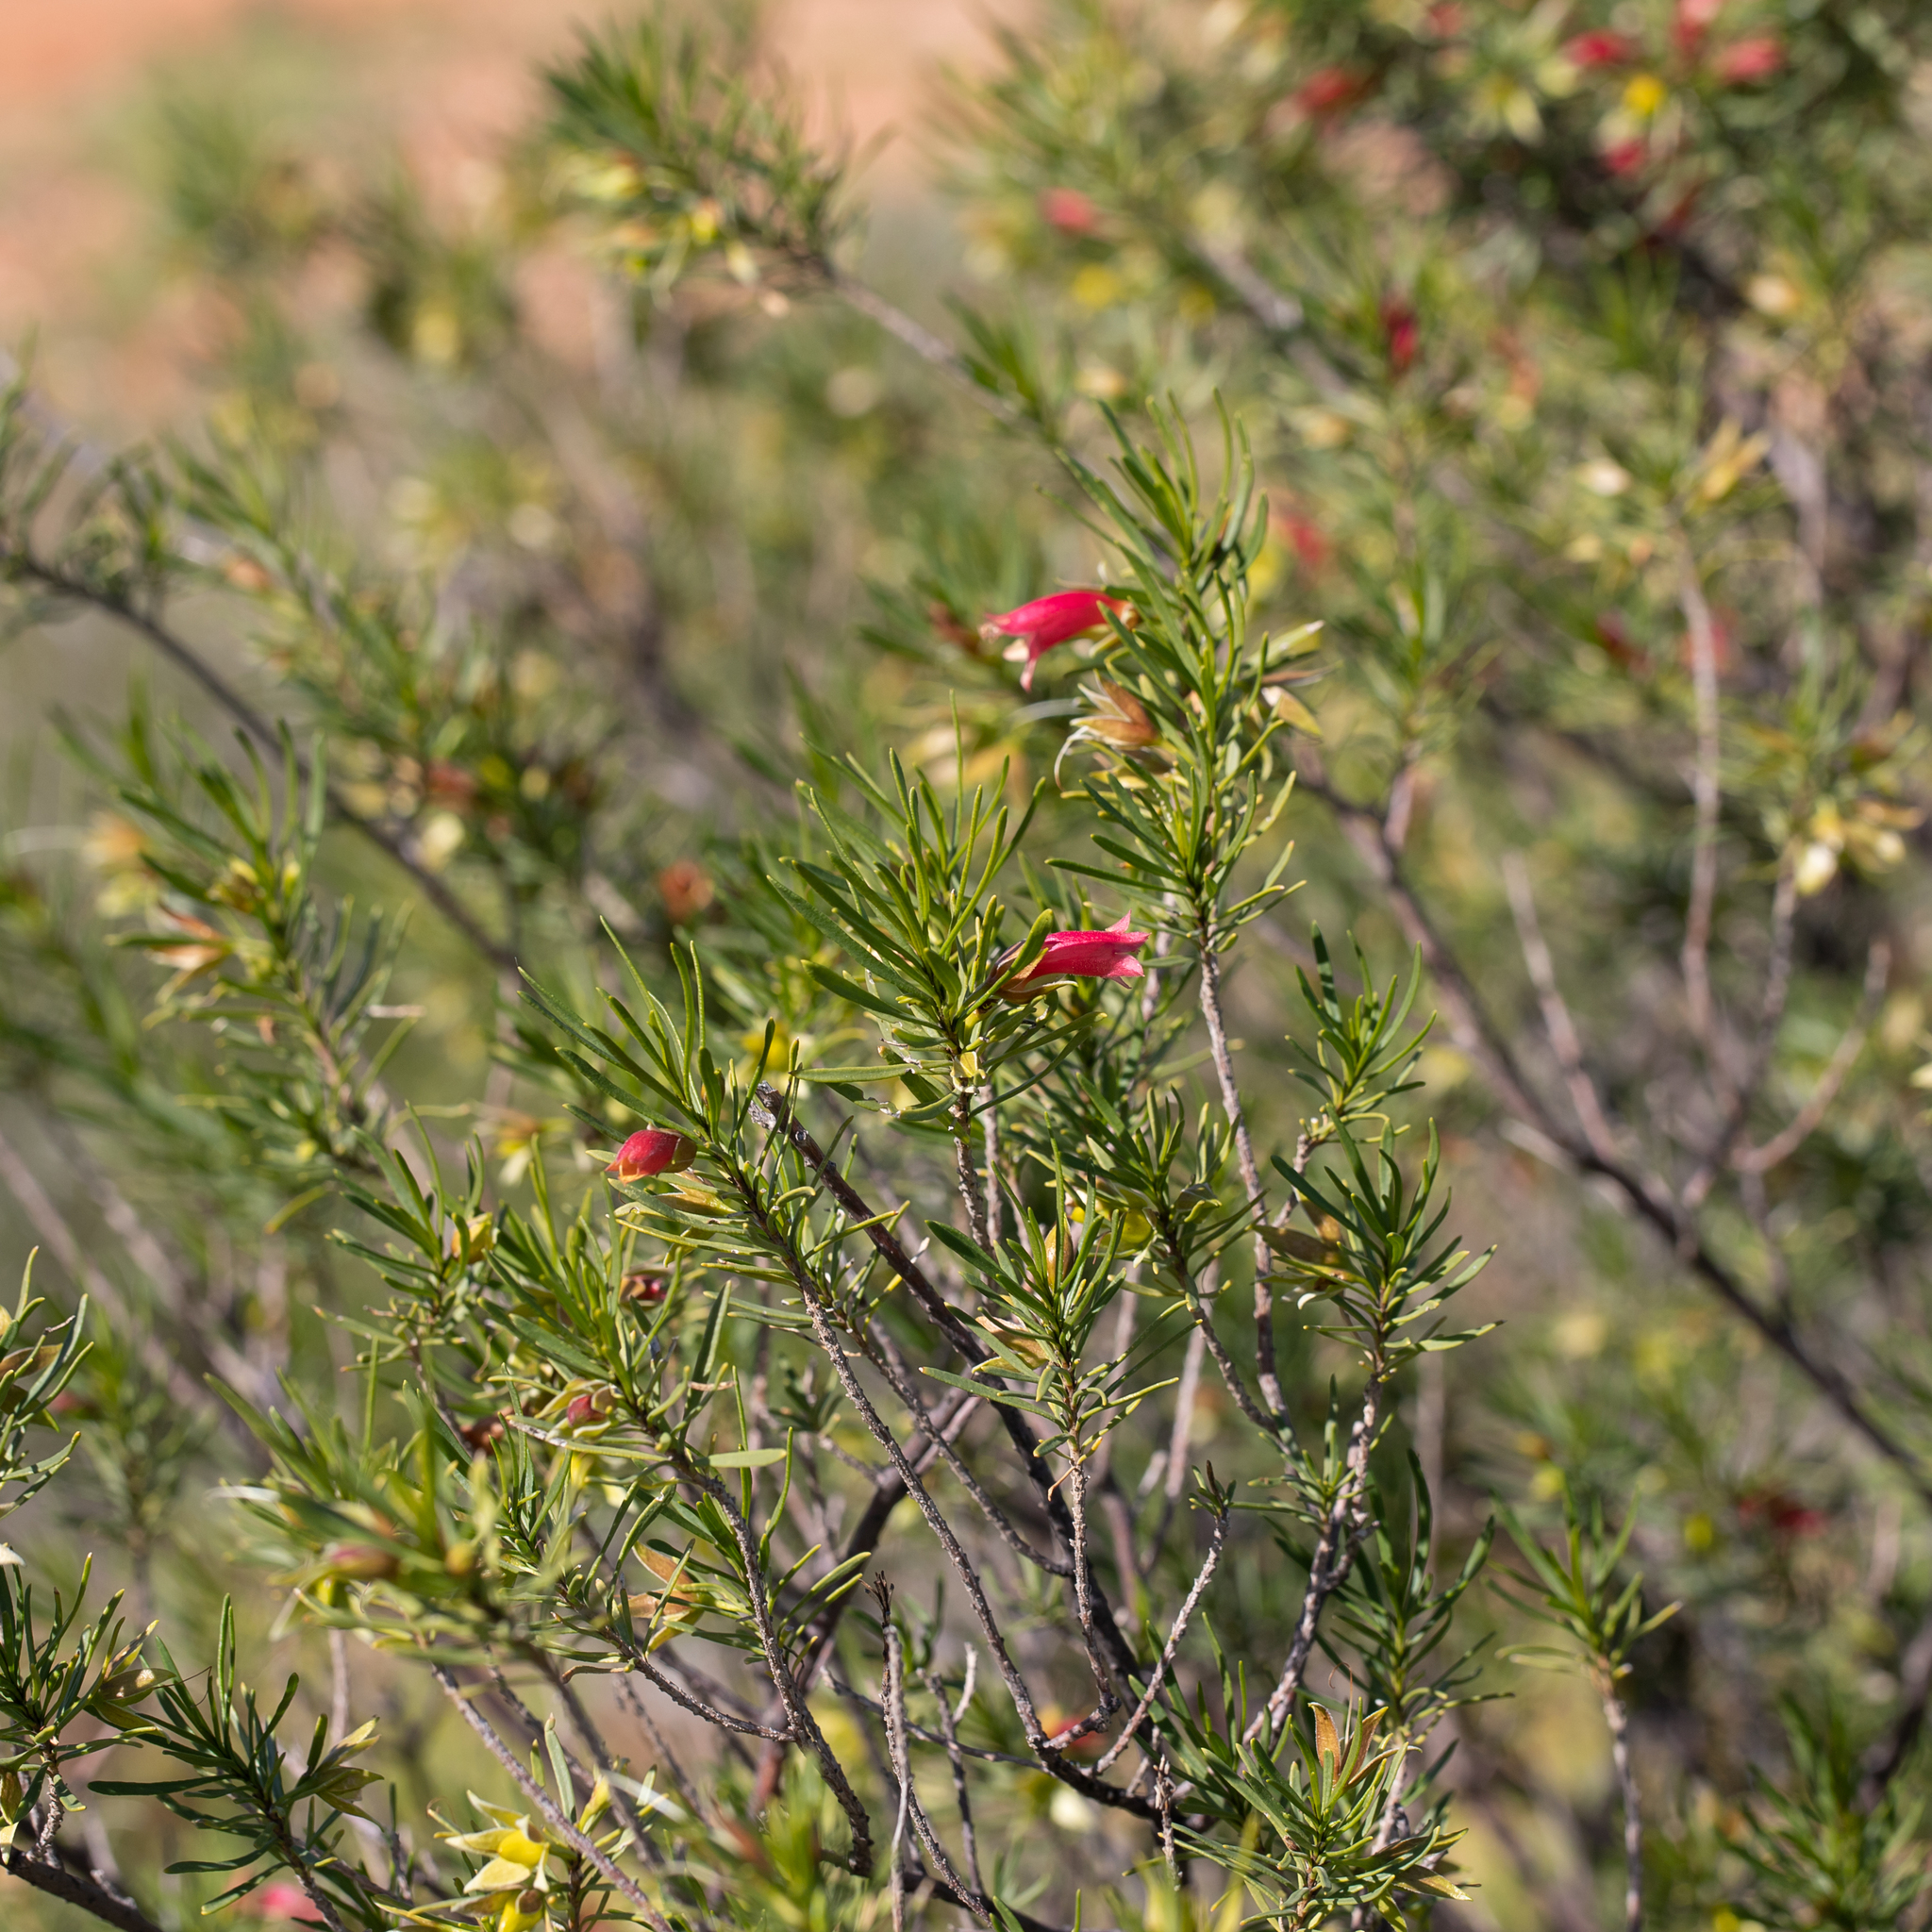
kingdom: Plantae
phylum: Tracheophyta
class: Magnoliopsida
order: Lamiales
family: Scrophulariaceae
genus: Eremophila
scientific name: Eremophila latrobei
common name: Crimson turkeybush
